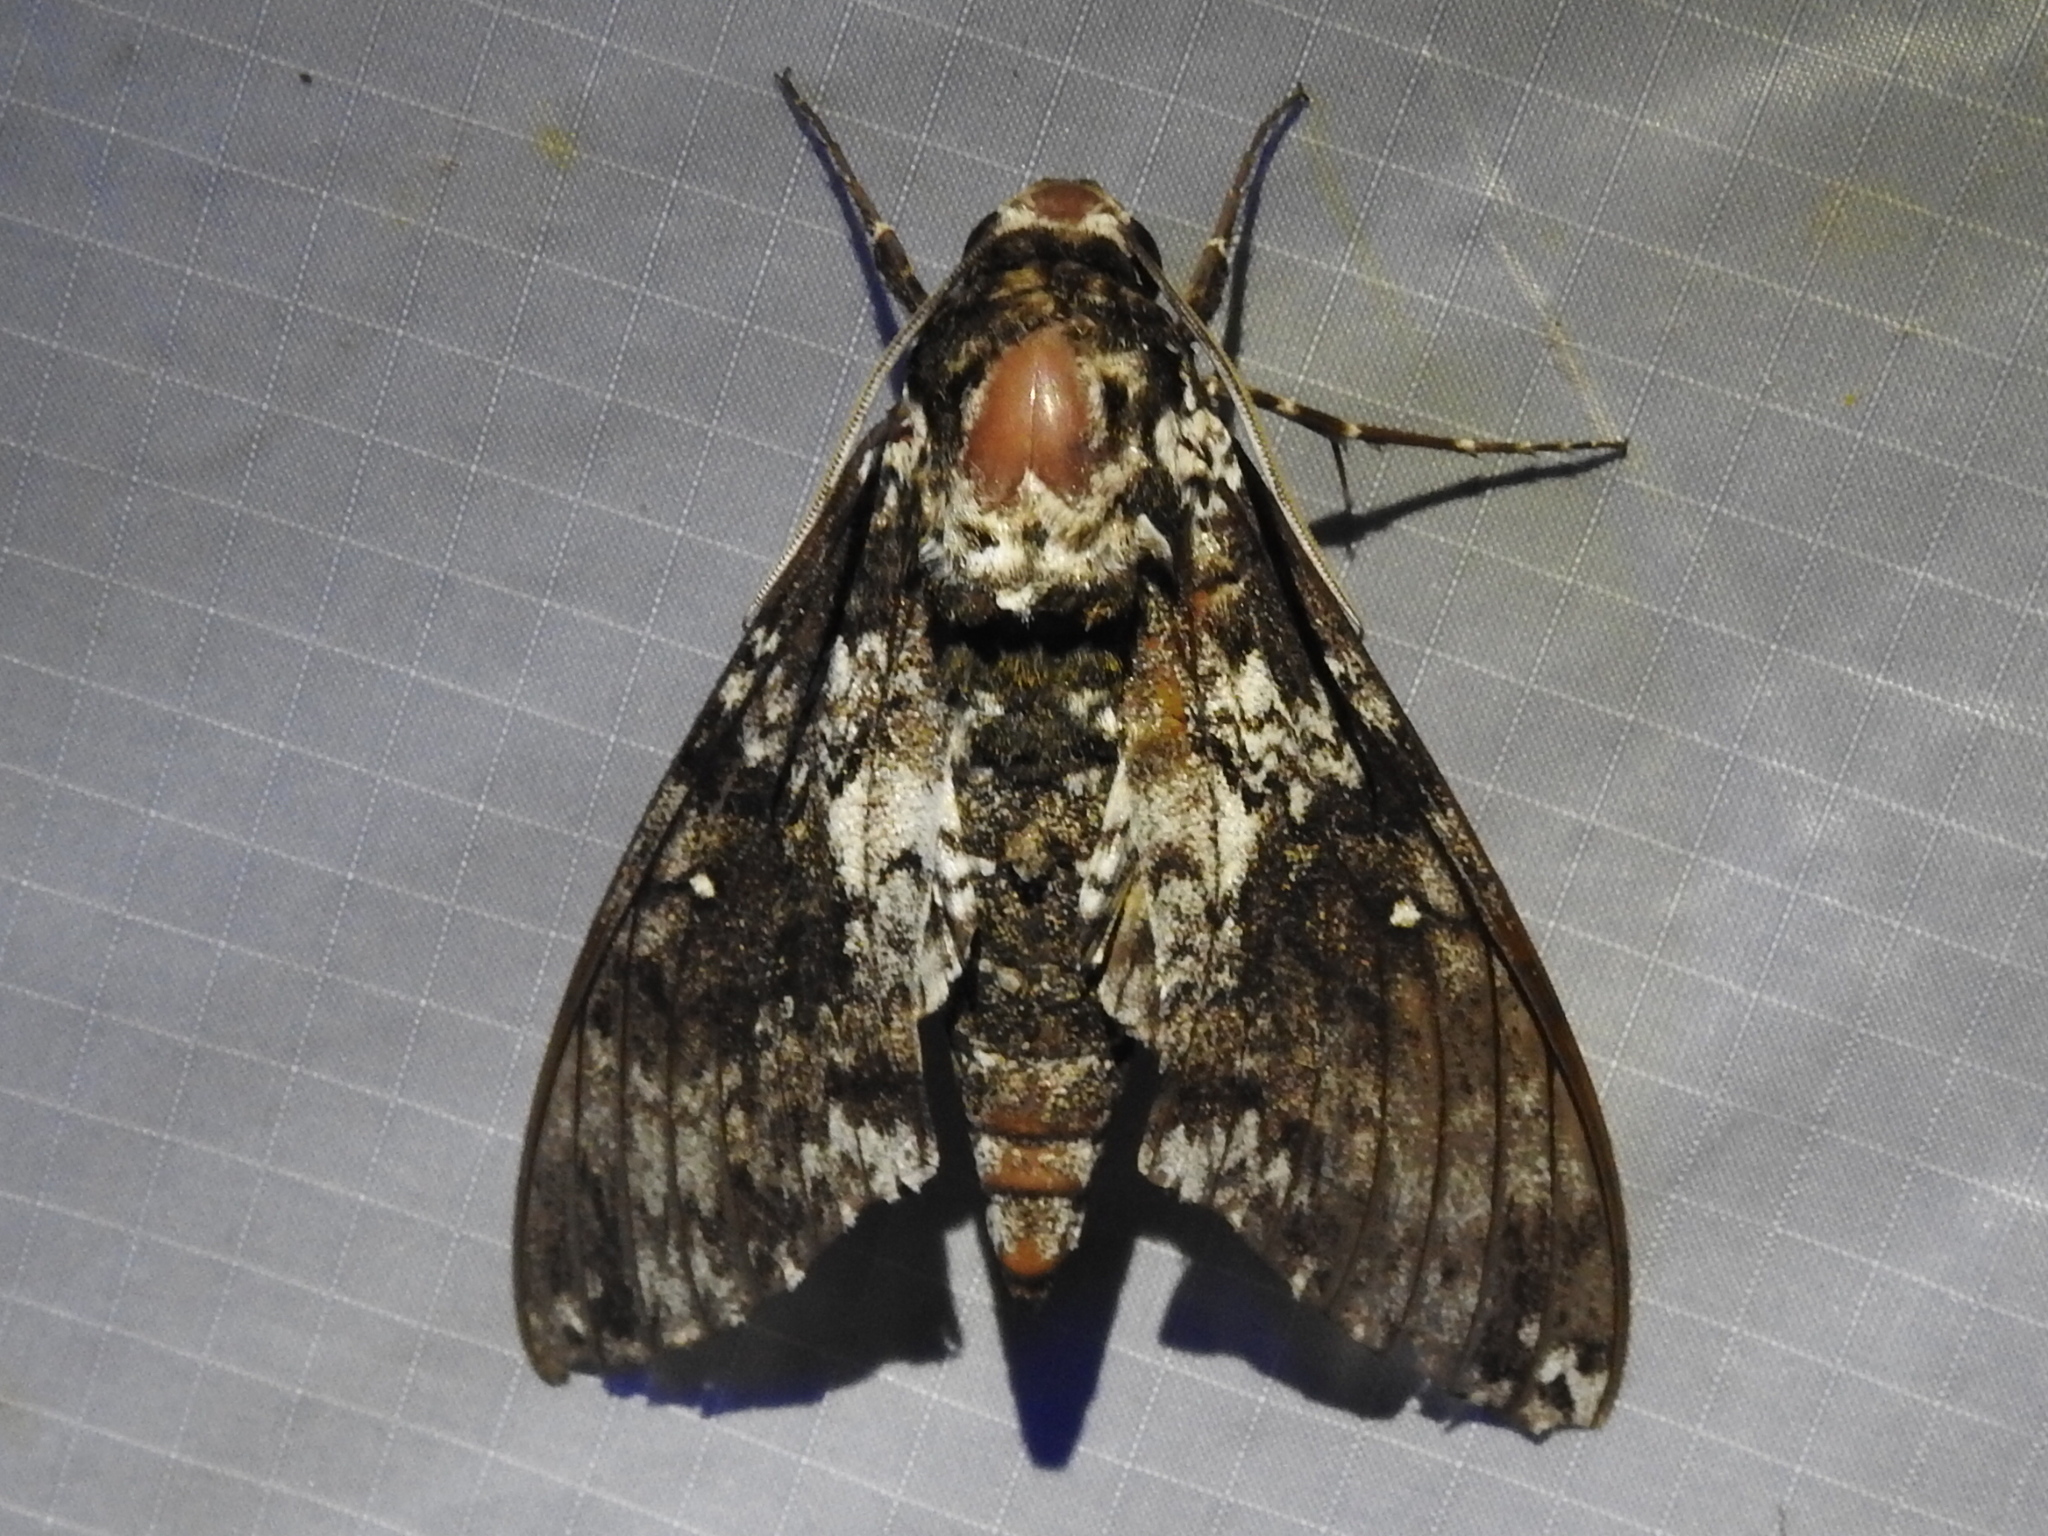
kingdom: Animalia
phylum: Arthropoda
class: Insecta
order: Lepidoptera
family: Sphingidae
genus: Manduca
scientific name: Manduca rustica
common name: Rustic sphinx
